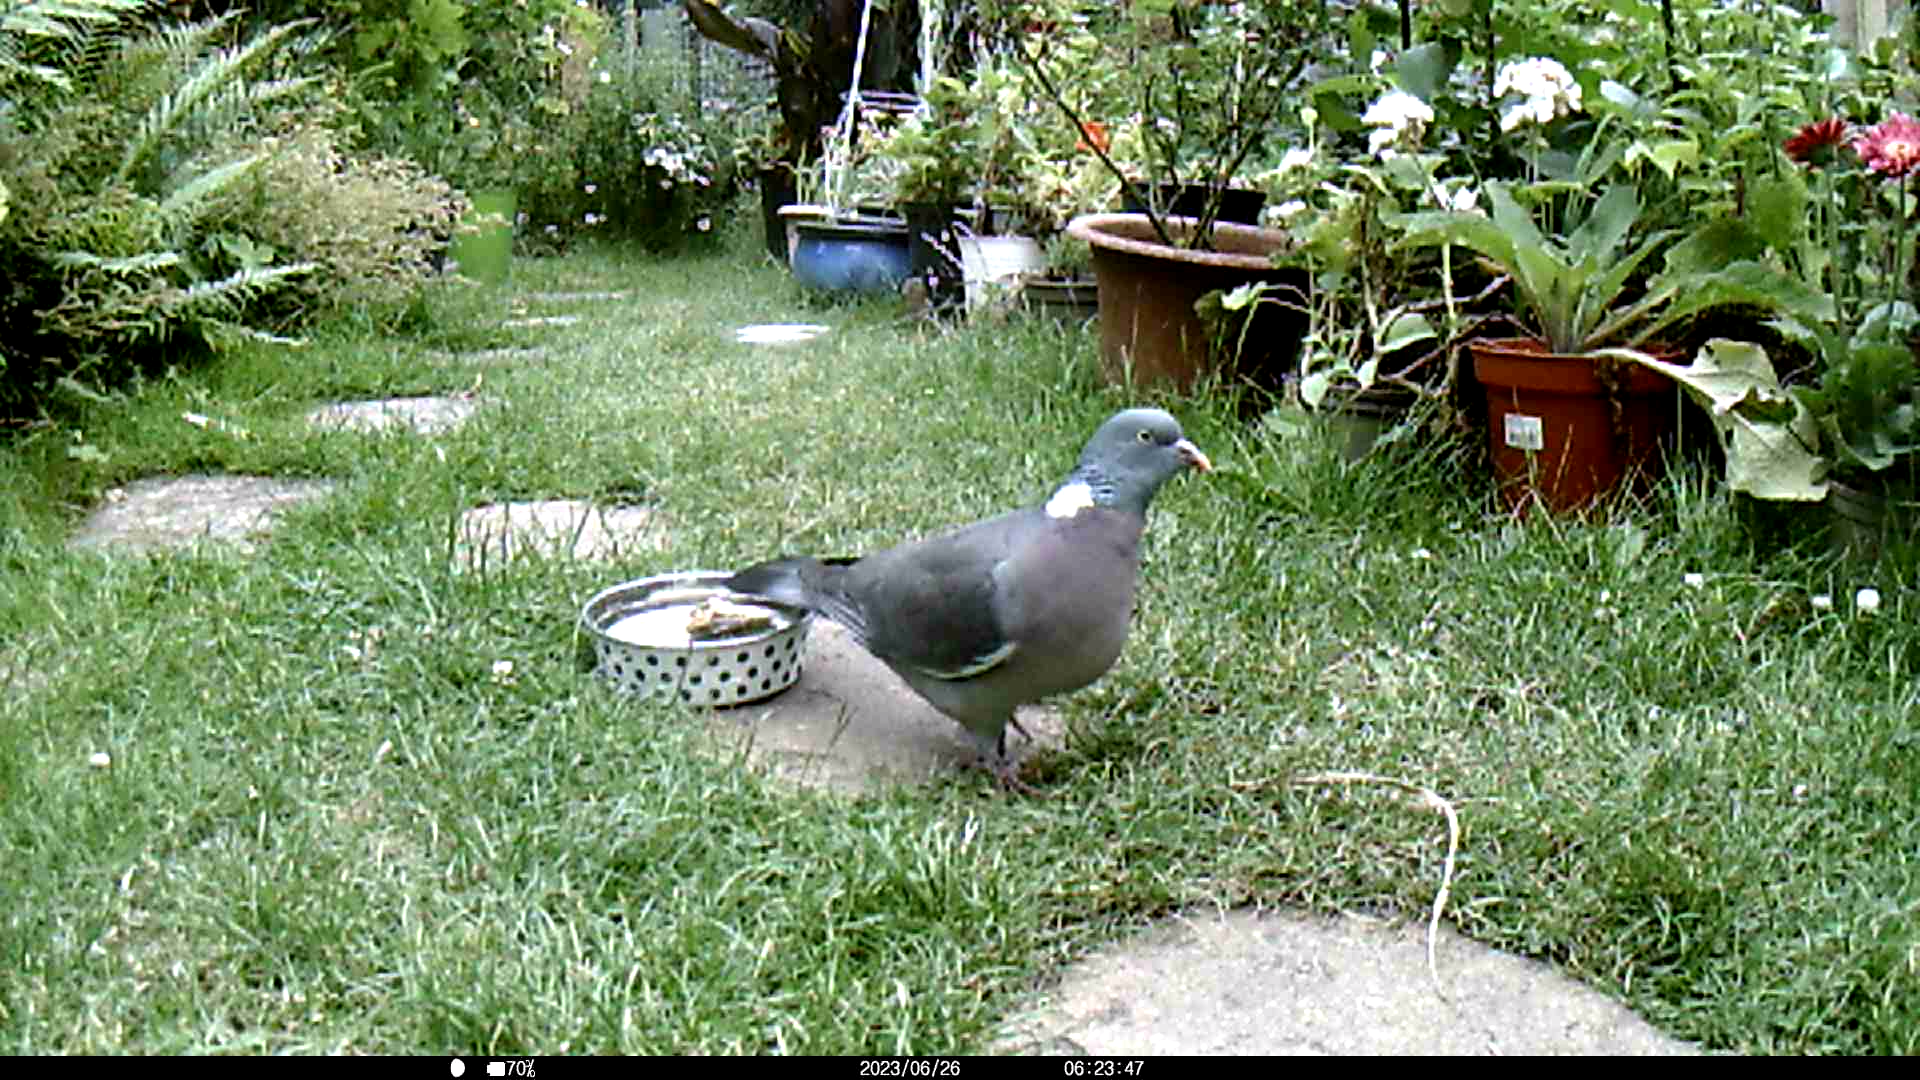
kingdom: Animalia
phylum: Chordata
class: Aves
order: Columbiformes
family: Columbidae
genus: Columba
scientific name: Columba palumbus
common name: Common wood pigeon
